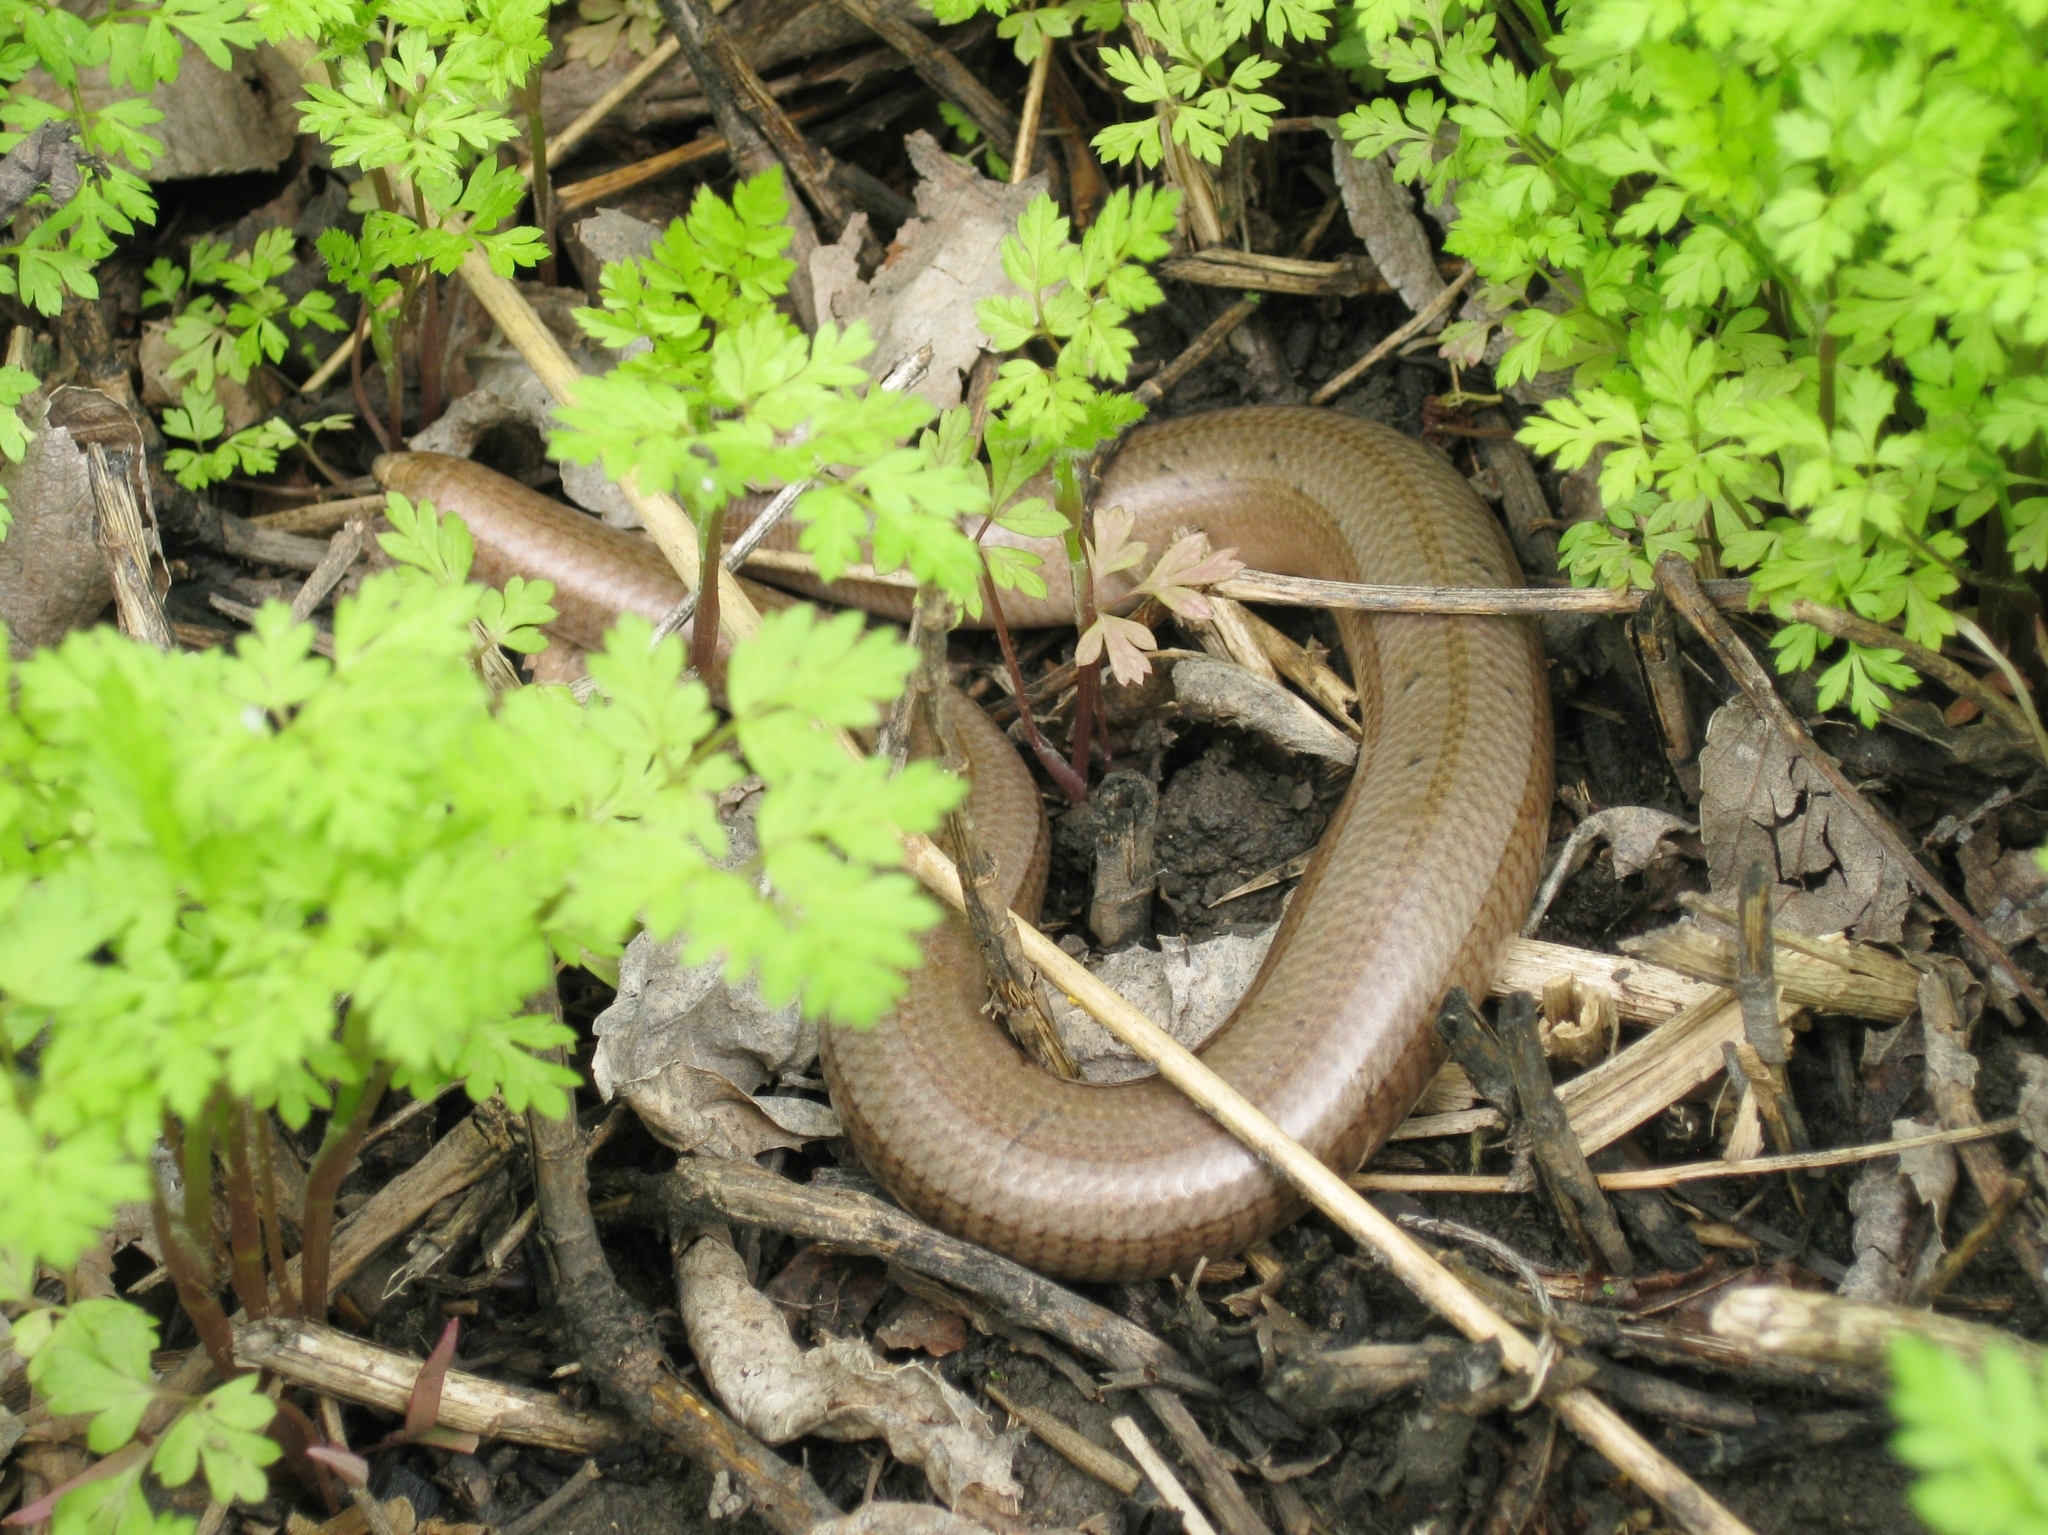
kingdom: Animalia
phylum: Chordata
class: Squamata
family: Anguidae
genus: Anguis
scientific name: Anguis colchica
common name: Slow worm
